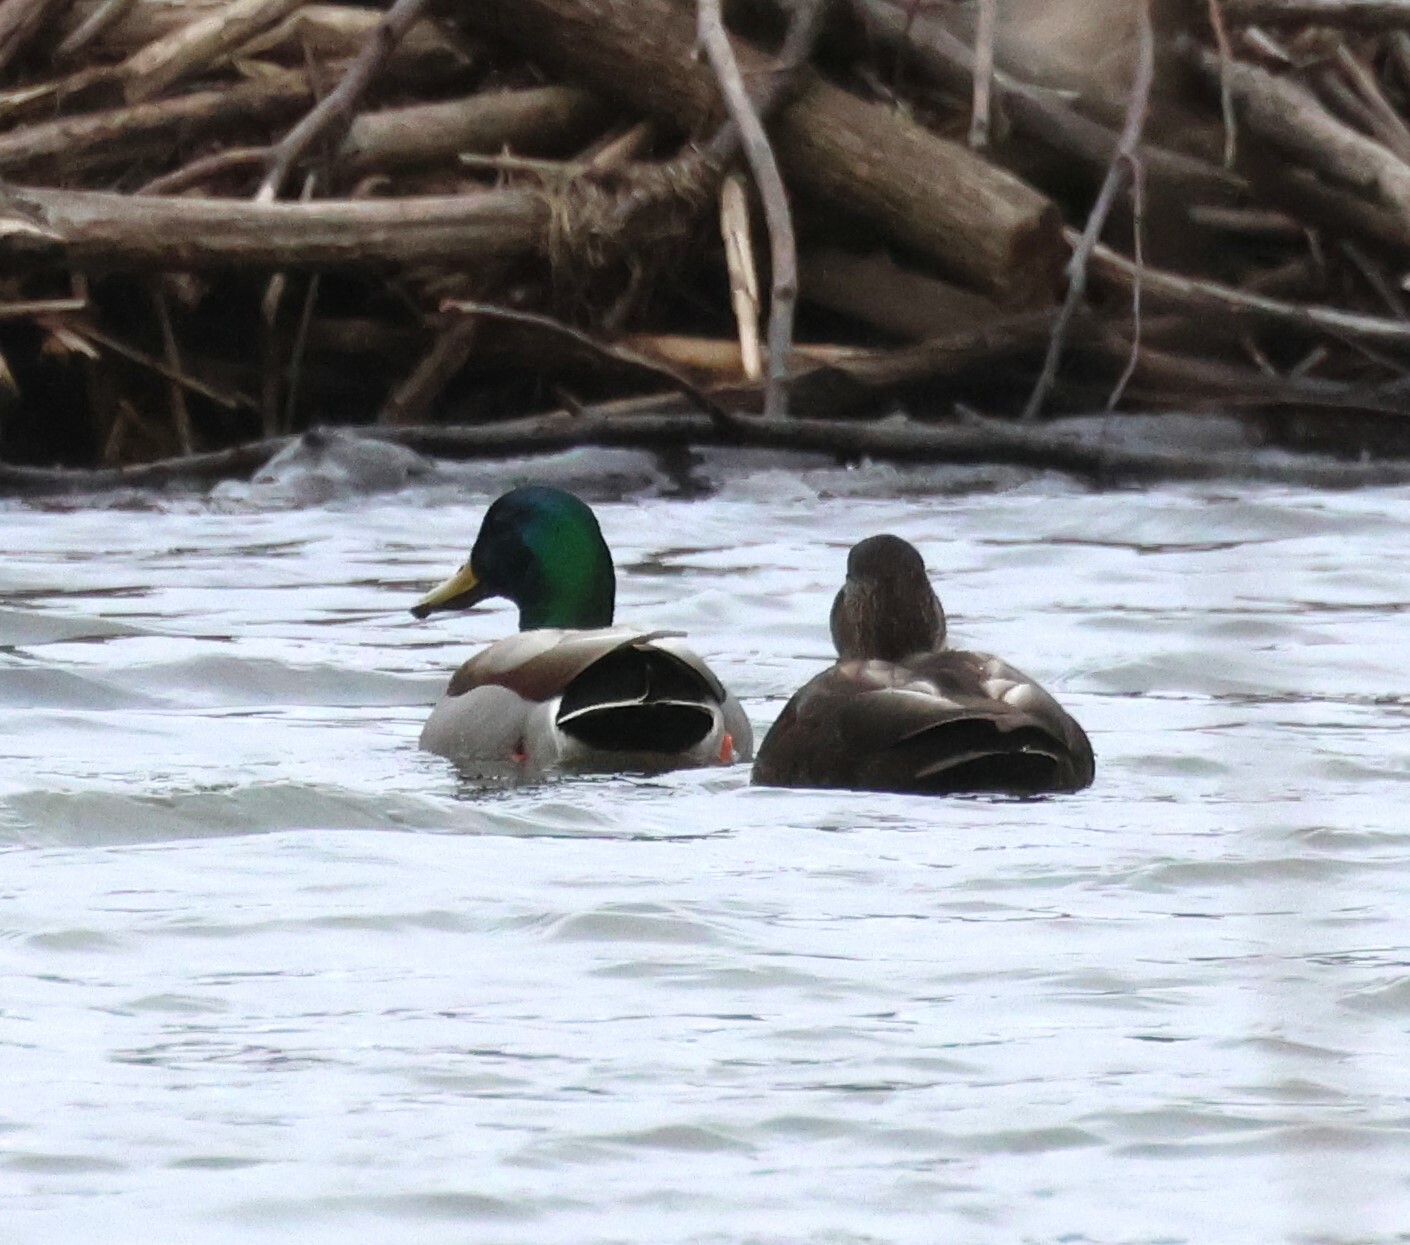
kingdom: Animalia
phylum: Chordata
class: Aves
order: Anseriformes
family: Anatidae
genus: Anas
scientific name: Anas platyrhynchos
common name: Mallard
